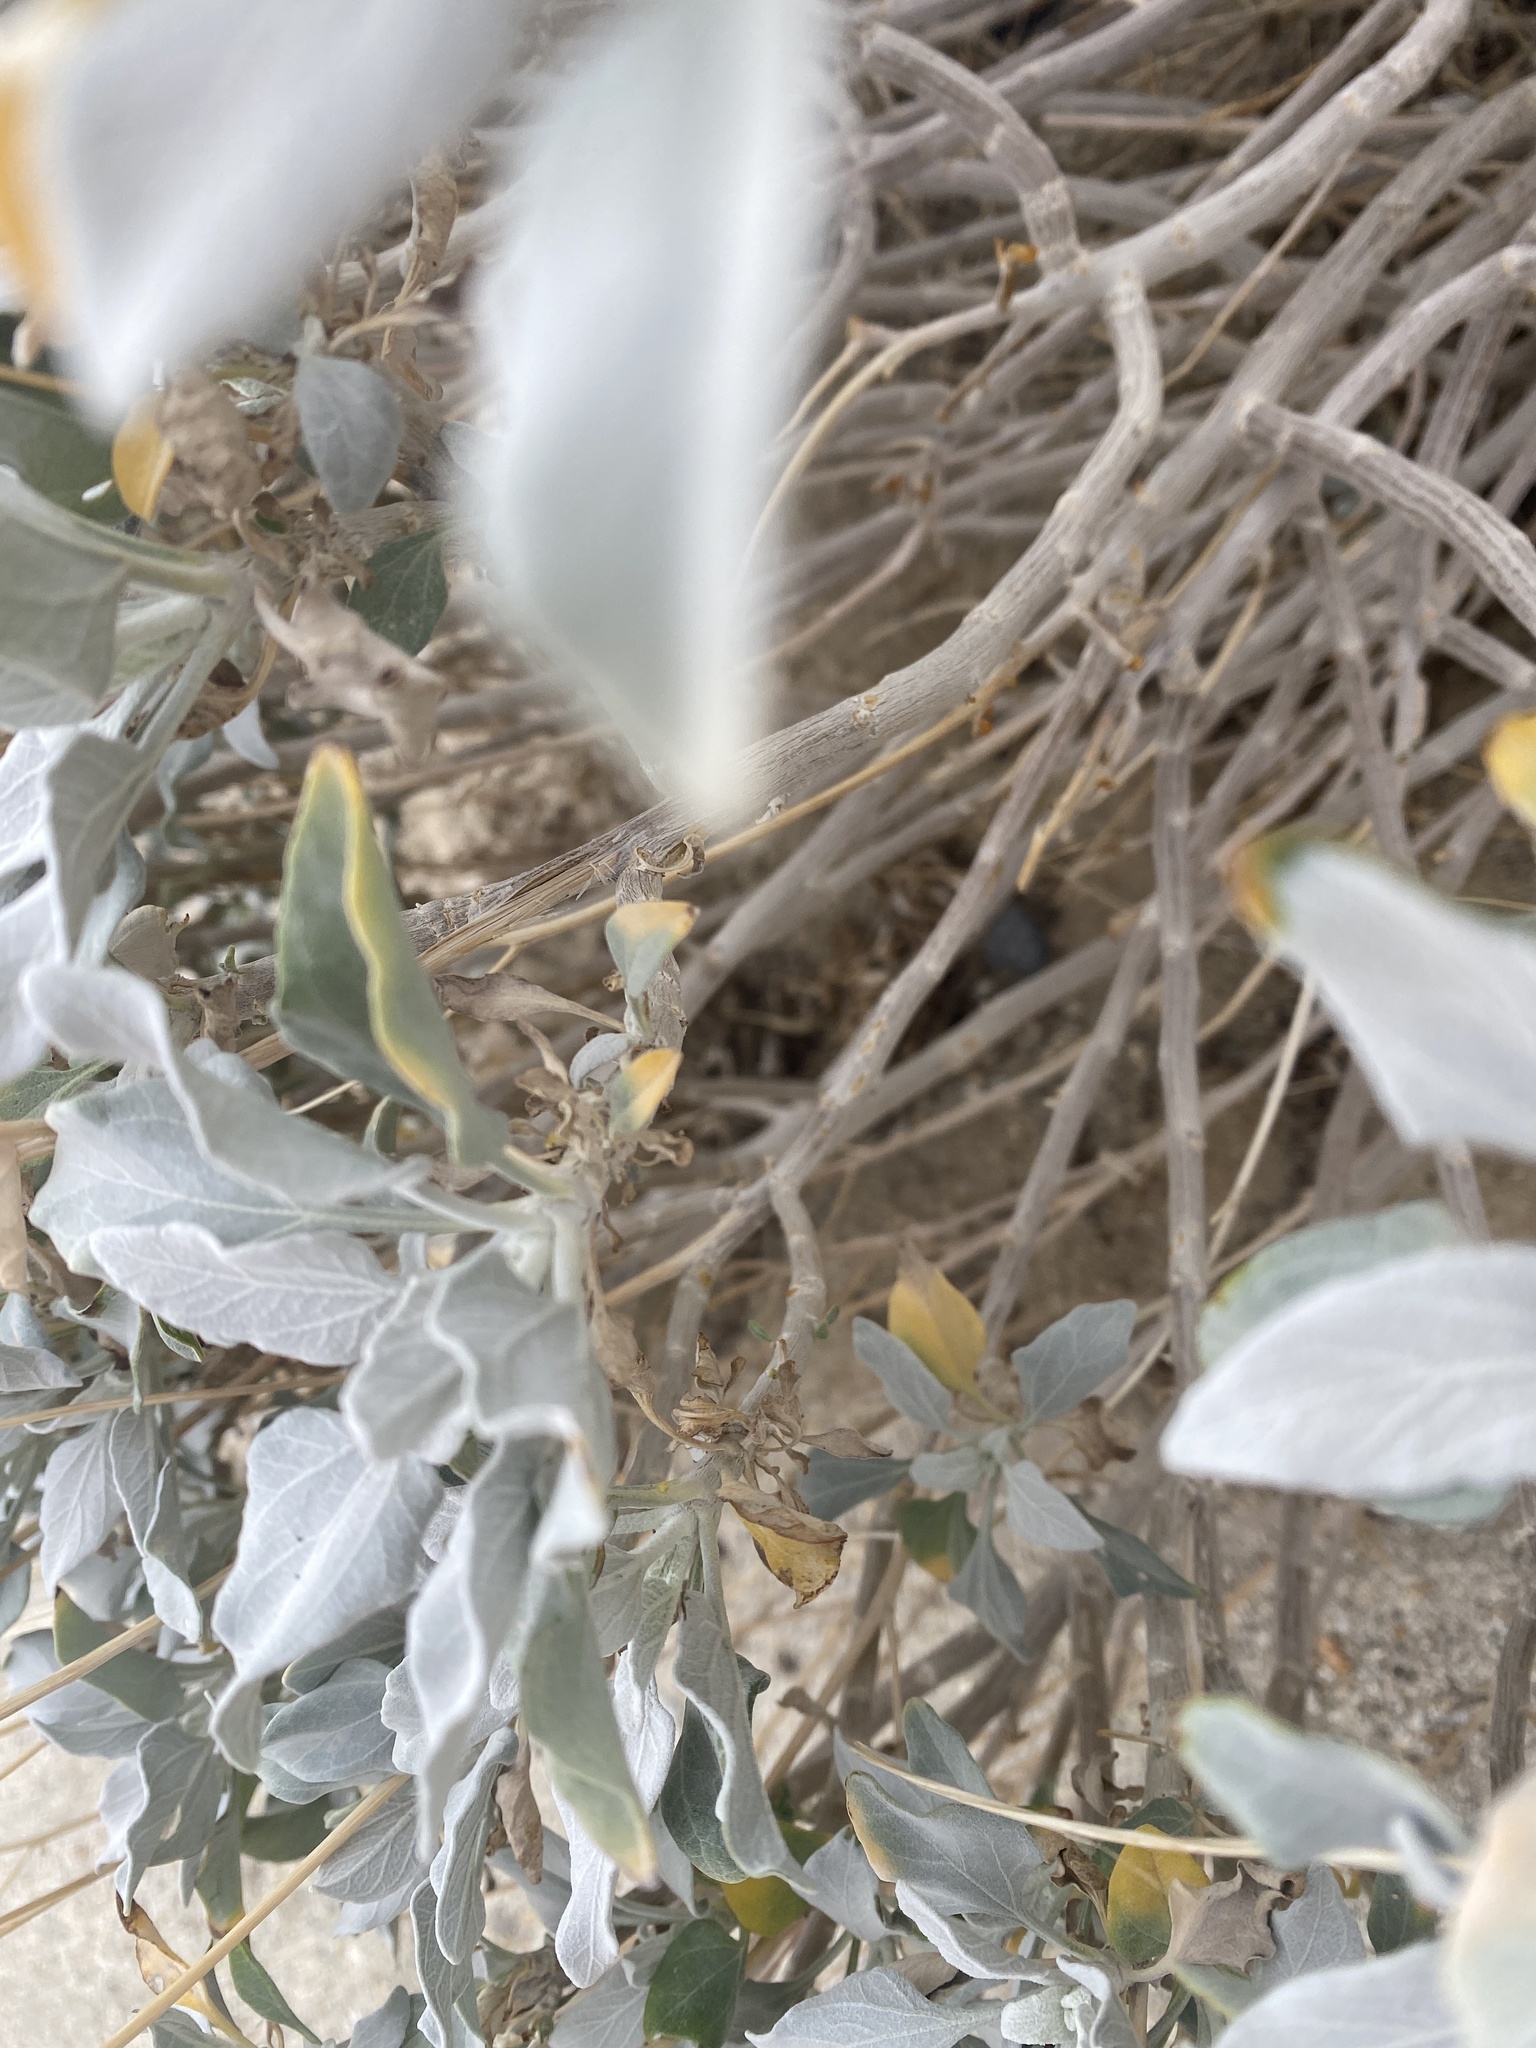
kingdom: Plantae
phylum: Tracheophyta
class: Magnoliopsida
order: Asterales
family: Asteraceae
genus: Encelia
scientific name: Encelia farinosa
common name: Brittlebush
